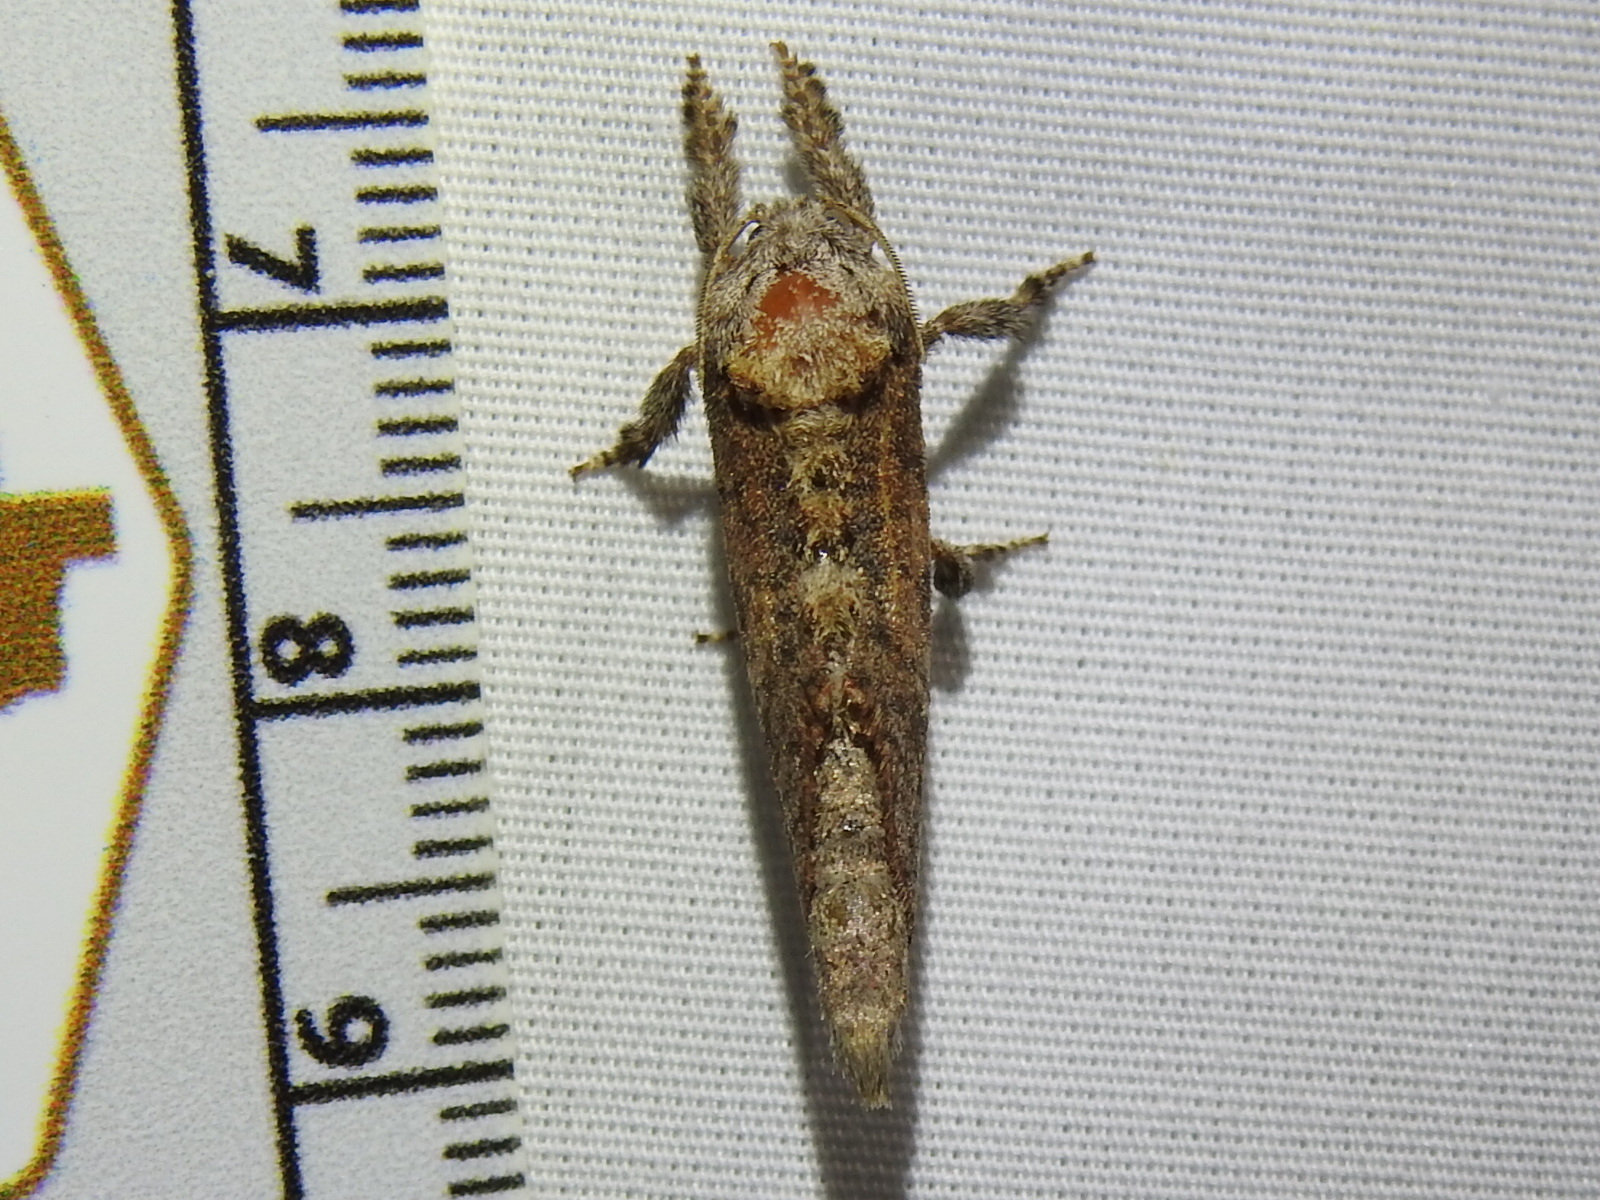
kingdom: Animalia
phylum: Arthropoda
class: Insecta
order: Lepidoptera
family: Cossidae
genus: Givira
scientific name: Givira arbeloides
